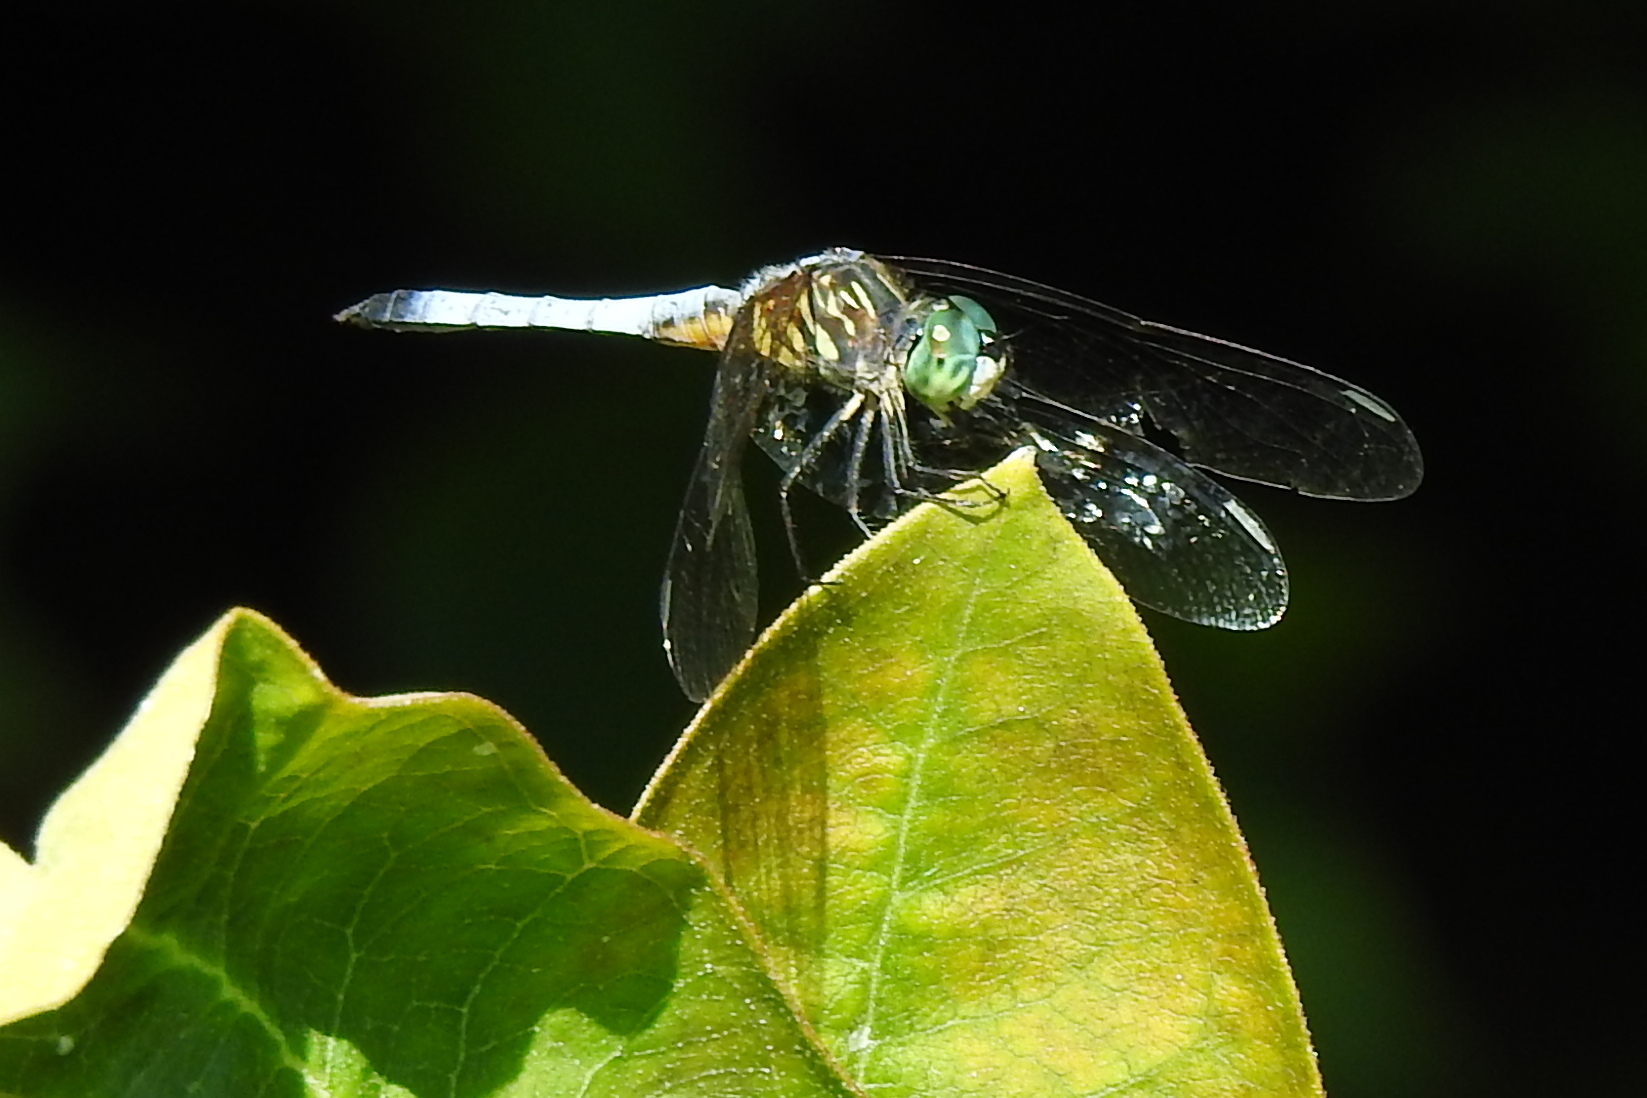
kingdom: Animalia
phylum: Arthropoda
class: Insecta
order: Odonata
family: Libellulidae
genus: Pachydiplax
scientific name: Pachydiplax longipennis
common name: Blue dasher
